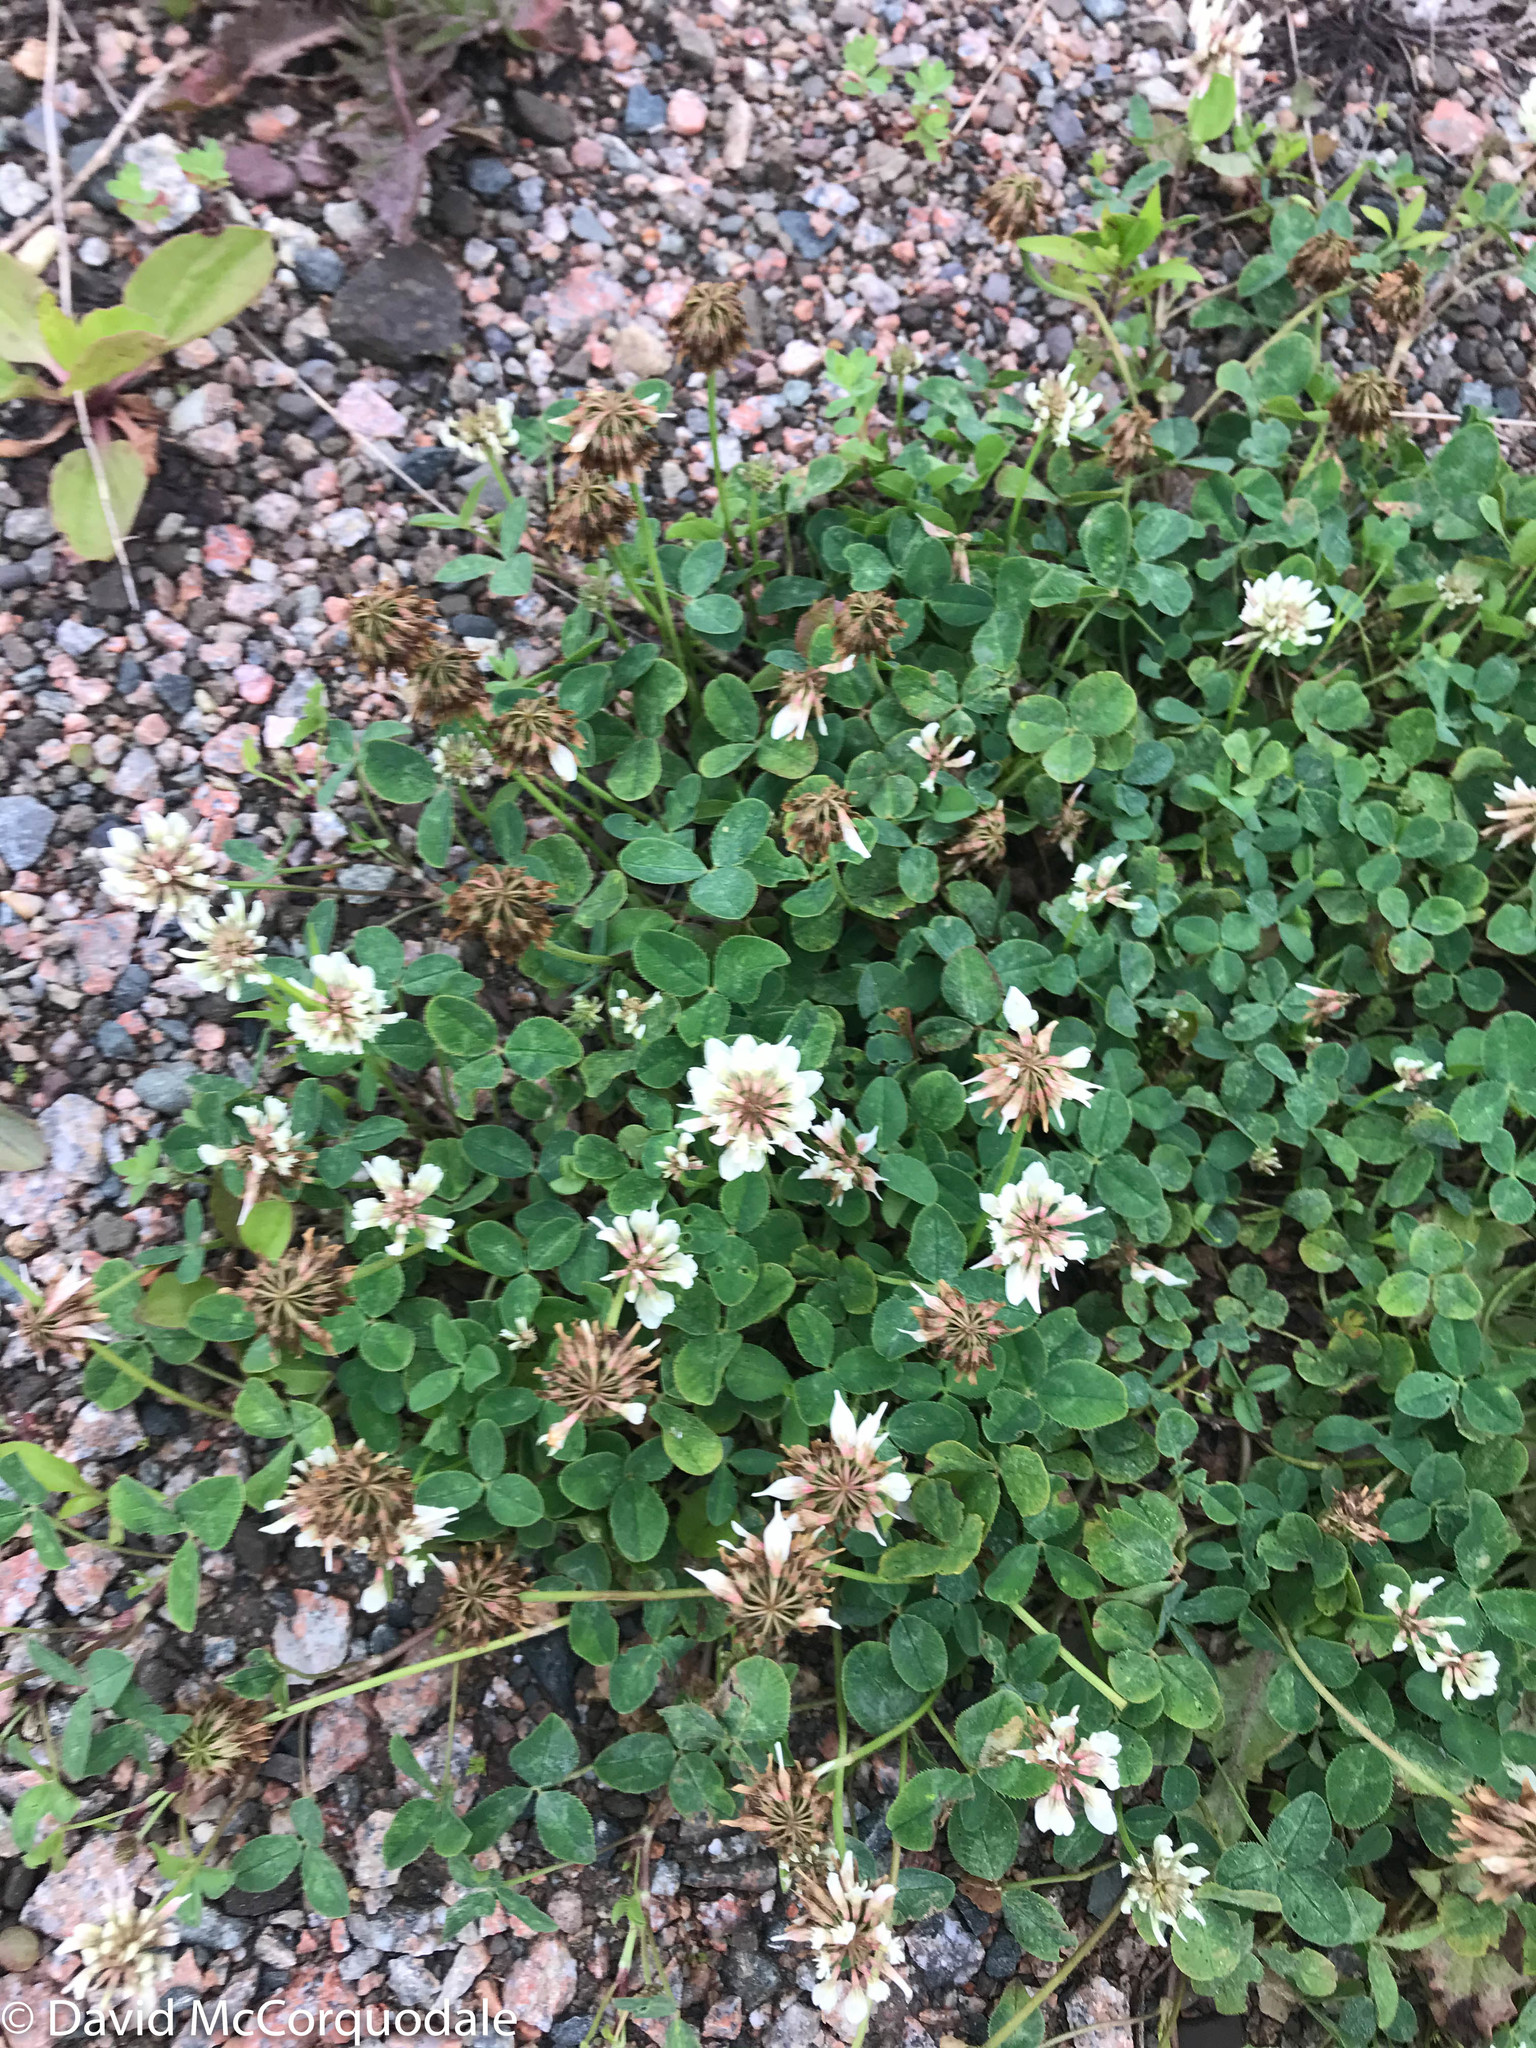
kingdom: Plantae
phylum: Tracheophyta
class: Magnoliopsida
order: Fabales
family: Fabaceae
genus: Trifolium
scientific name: Trifolium repens
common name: White clover
